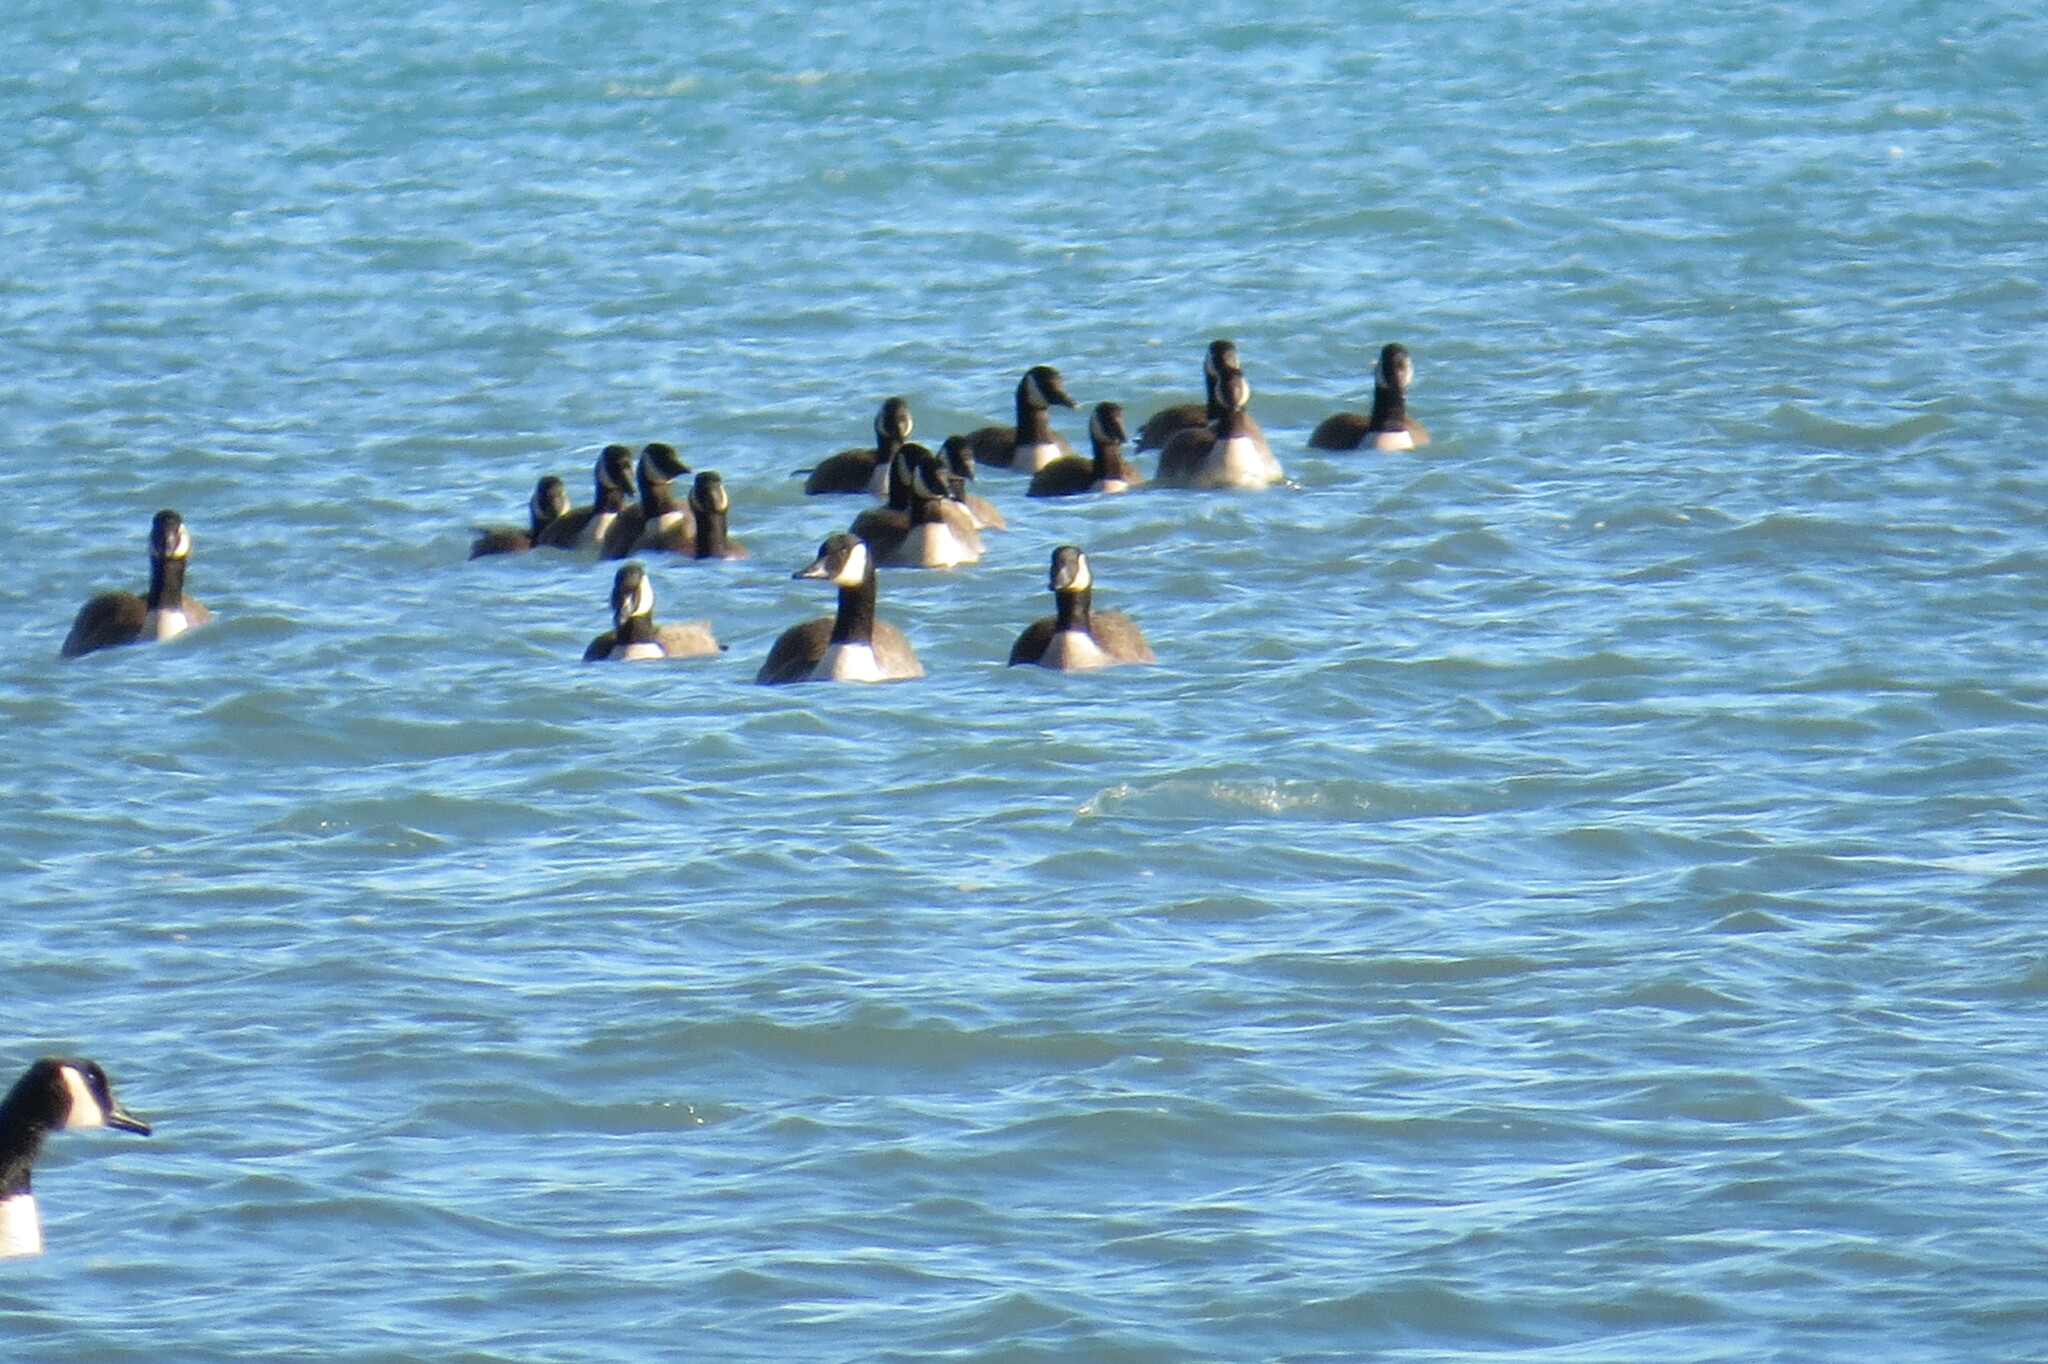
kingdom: Animalia
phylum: Chordata
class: Aves
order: Anseriformes
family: Anatidae
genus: Branta
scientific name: Branta canadensis
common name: Canada goose
